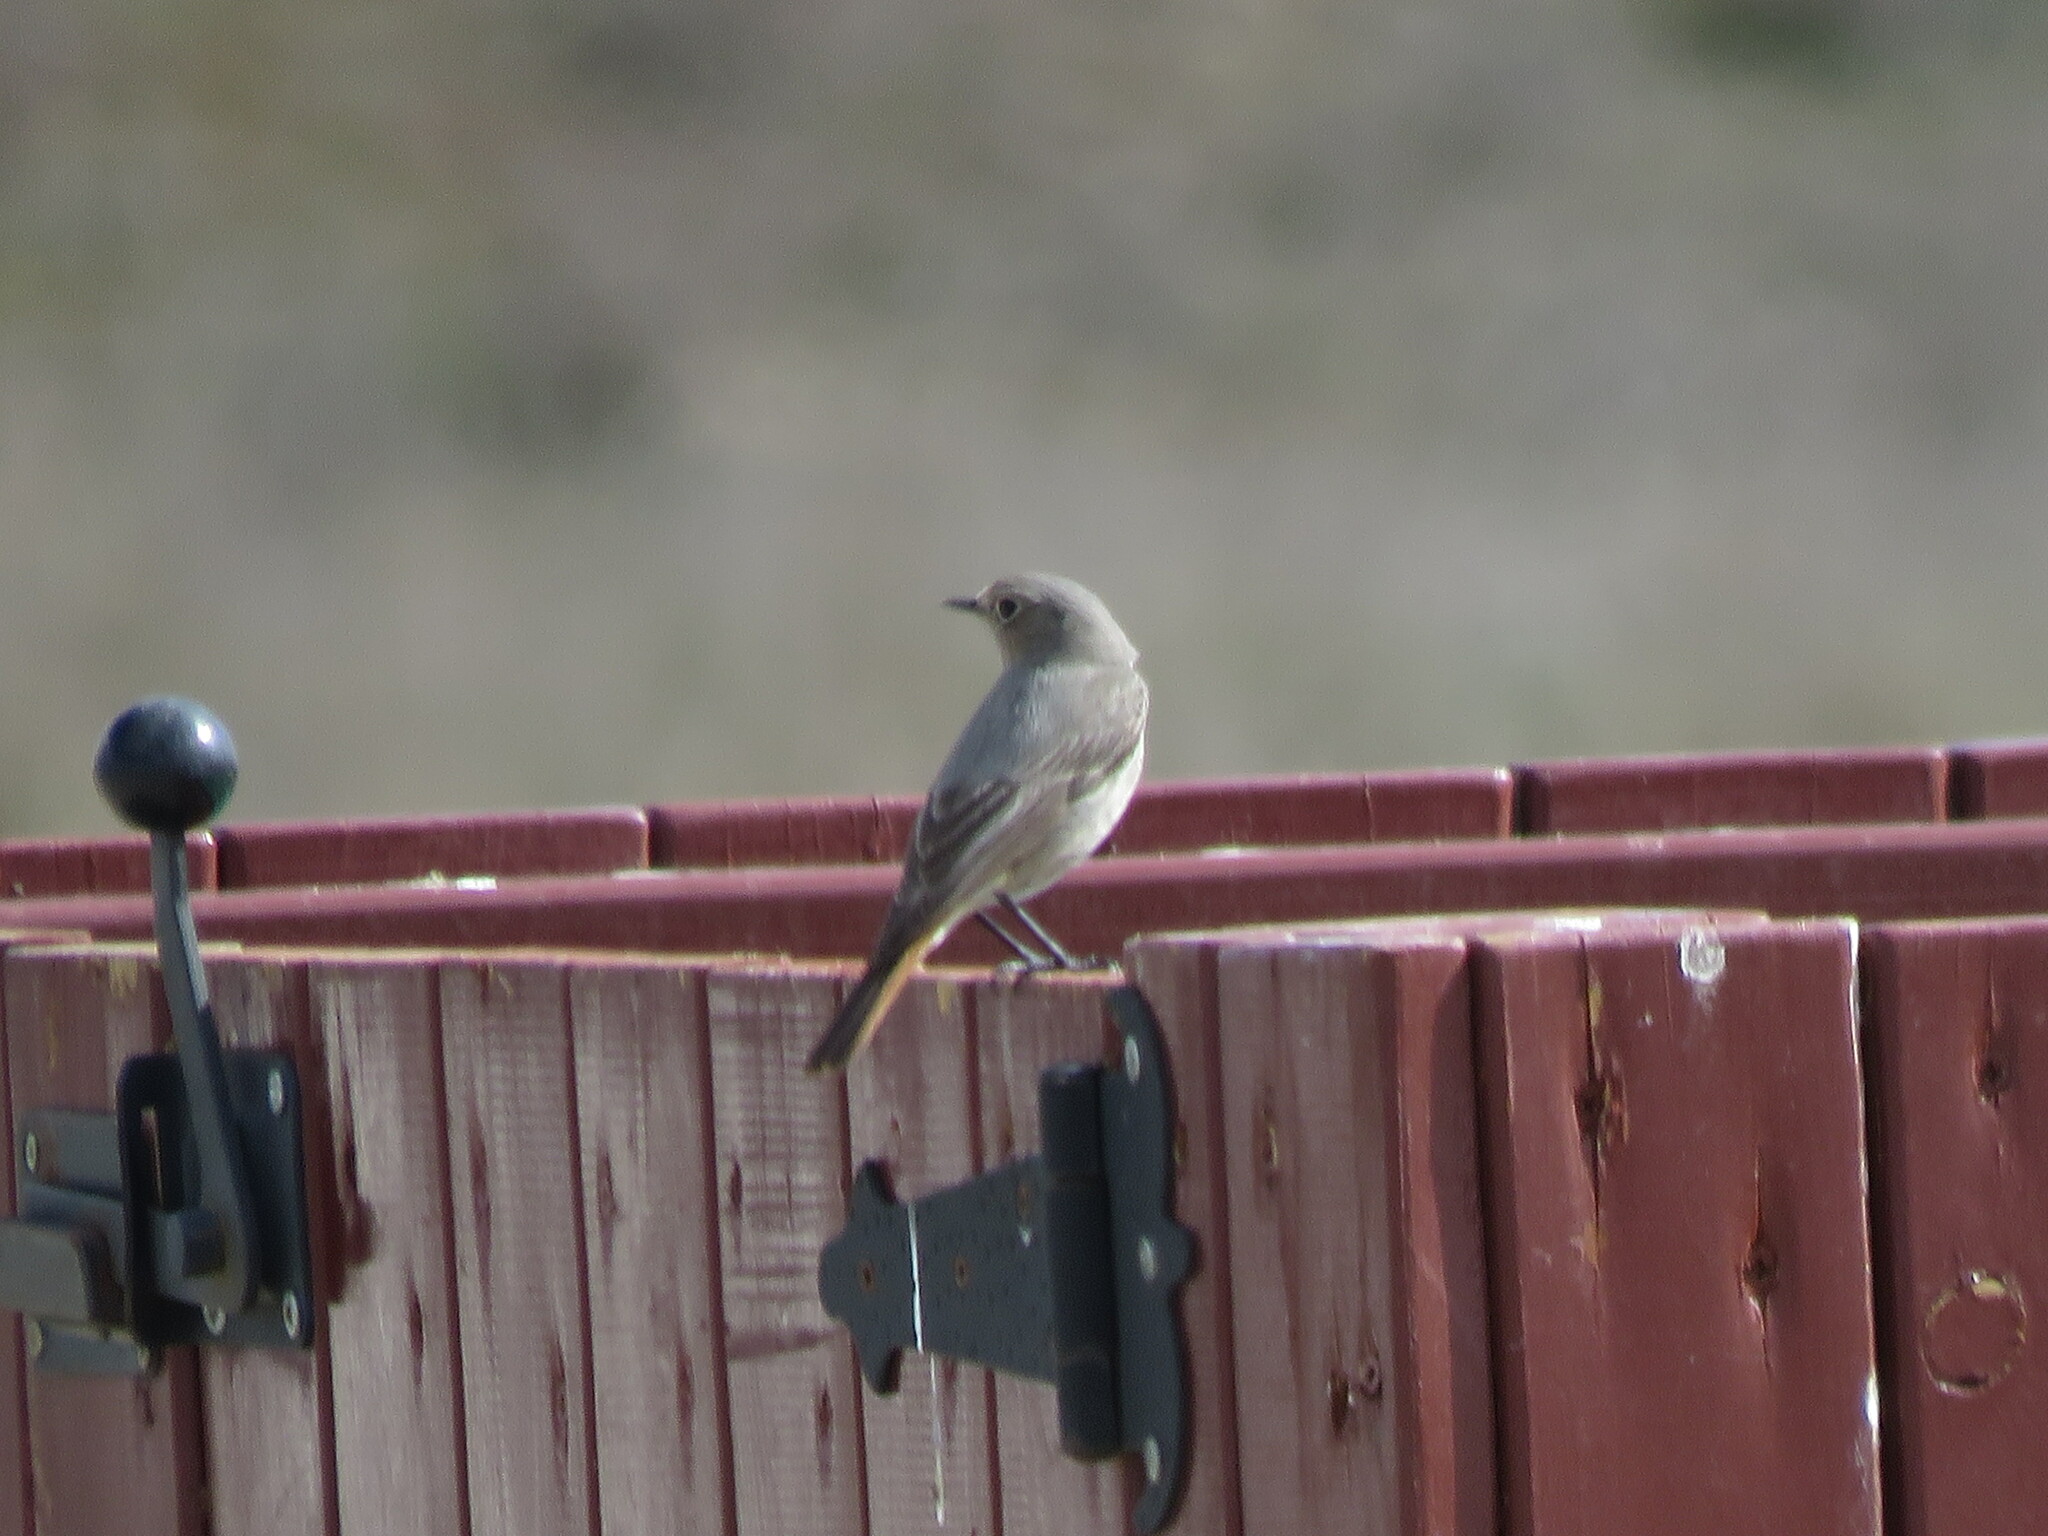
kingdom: Animalia
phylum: Chordata
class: Aves
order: Passeriformes
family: Muscicapidae
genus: Phoenicurus
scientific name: Phoenicurus ochruros
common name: Black redstart
